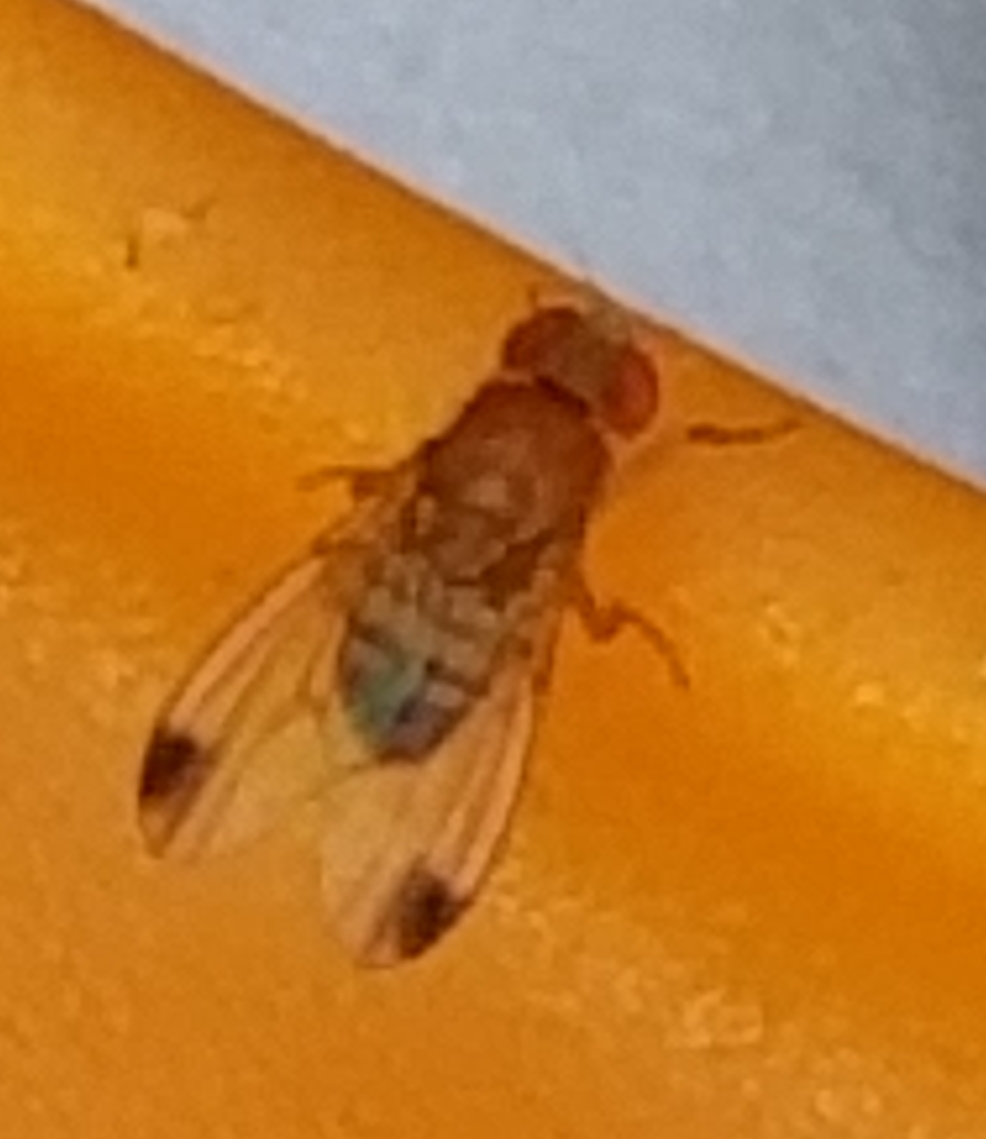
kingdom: Animalia
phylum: Arthropoda
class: Insecta
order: Diptera
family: Drosophilidae
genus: Drosophila
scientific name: Drosophila suzukii
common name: Spotted-wing drosophila
